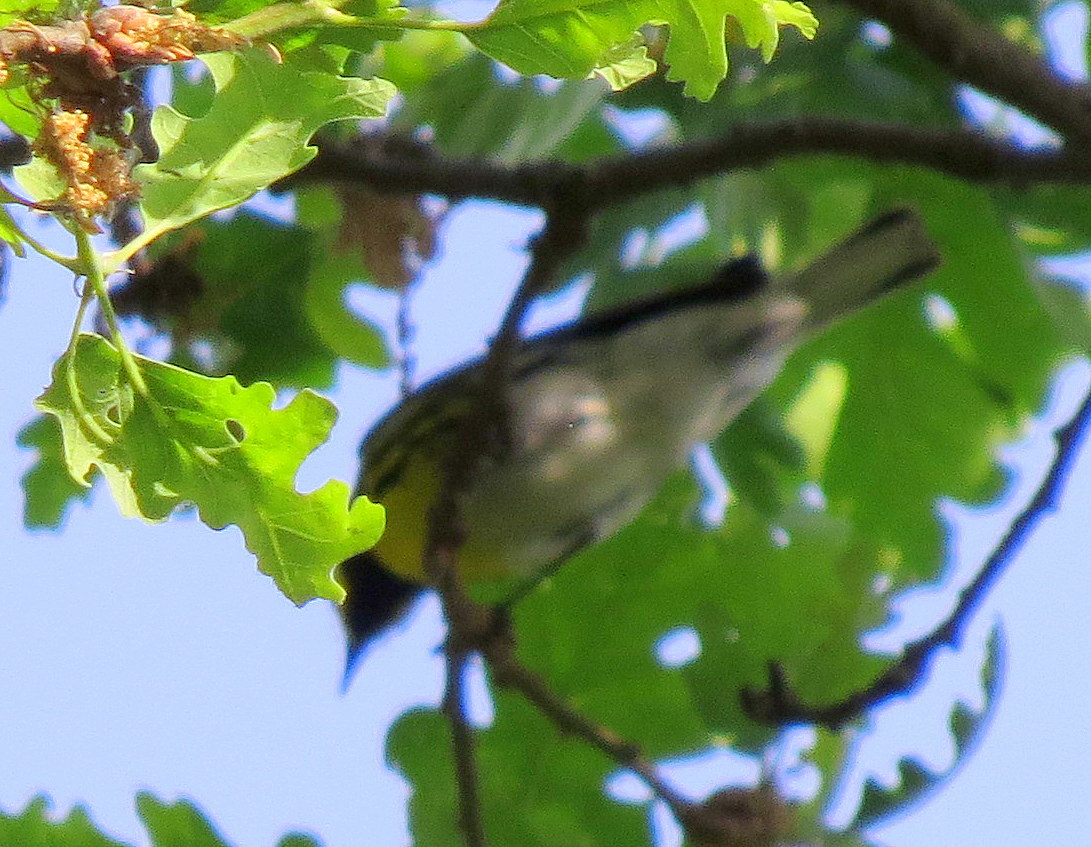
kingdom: Animalia
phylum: Chordata
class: Aves
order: Passeriformes
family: Parulidae
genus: Setophaga
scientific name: Setophaga townsendi
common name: Townsend's warbler
